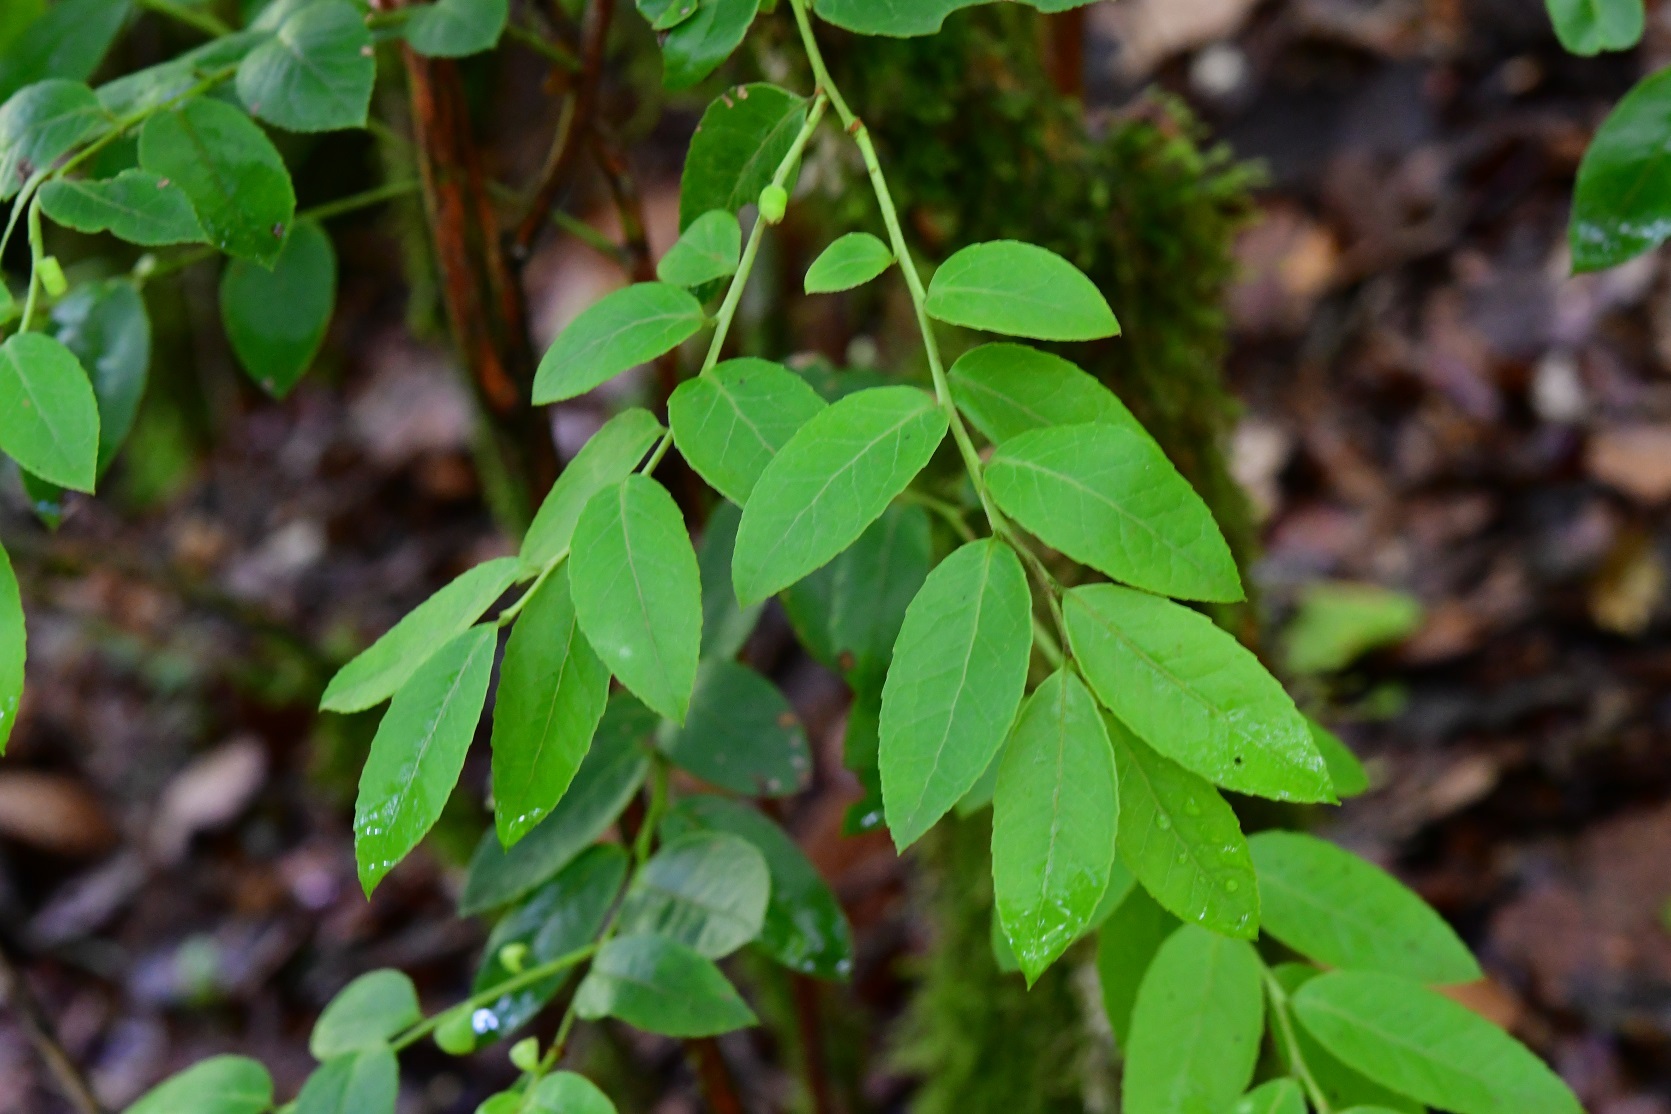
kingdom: Plantae
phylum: Tracheophyta
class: Magnoliopsida
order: Ericales
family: Ericaceae
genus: Vaccinium
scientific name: Vaccinium confertum
